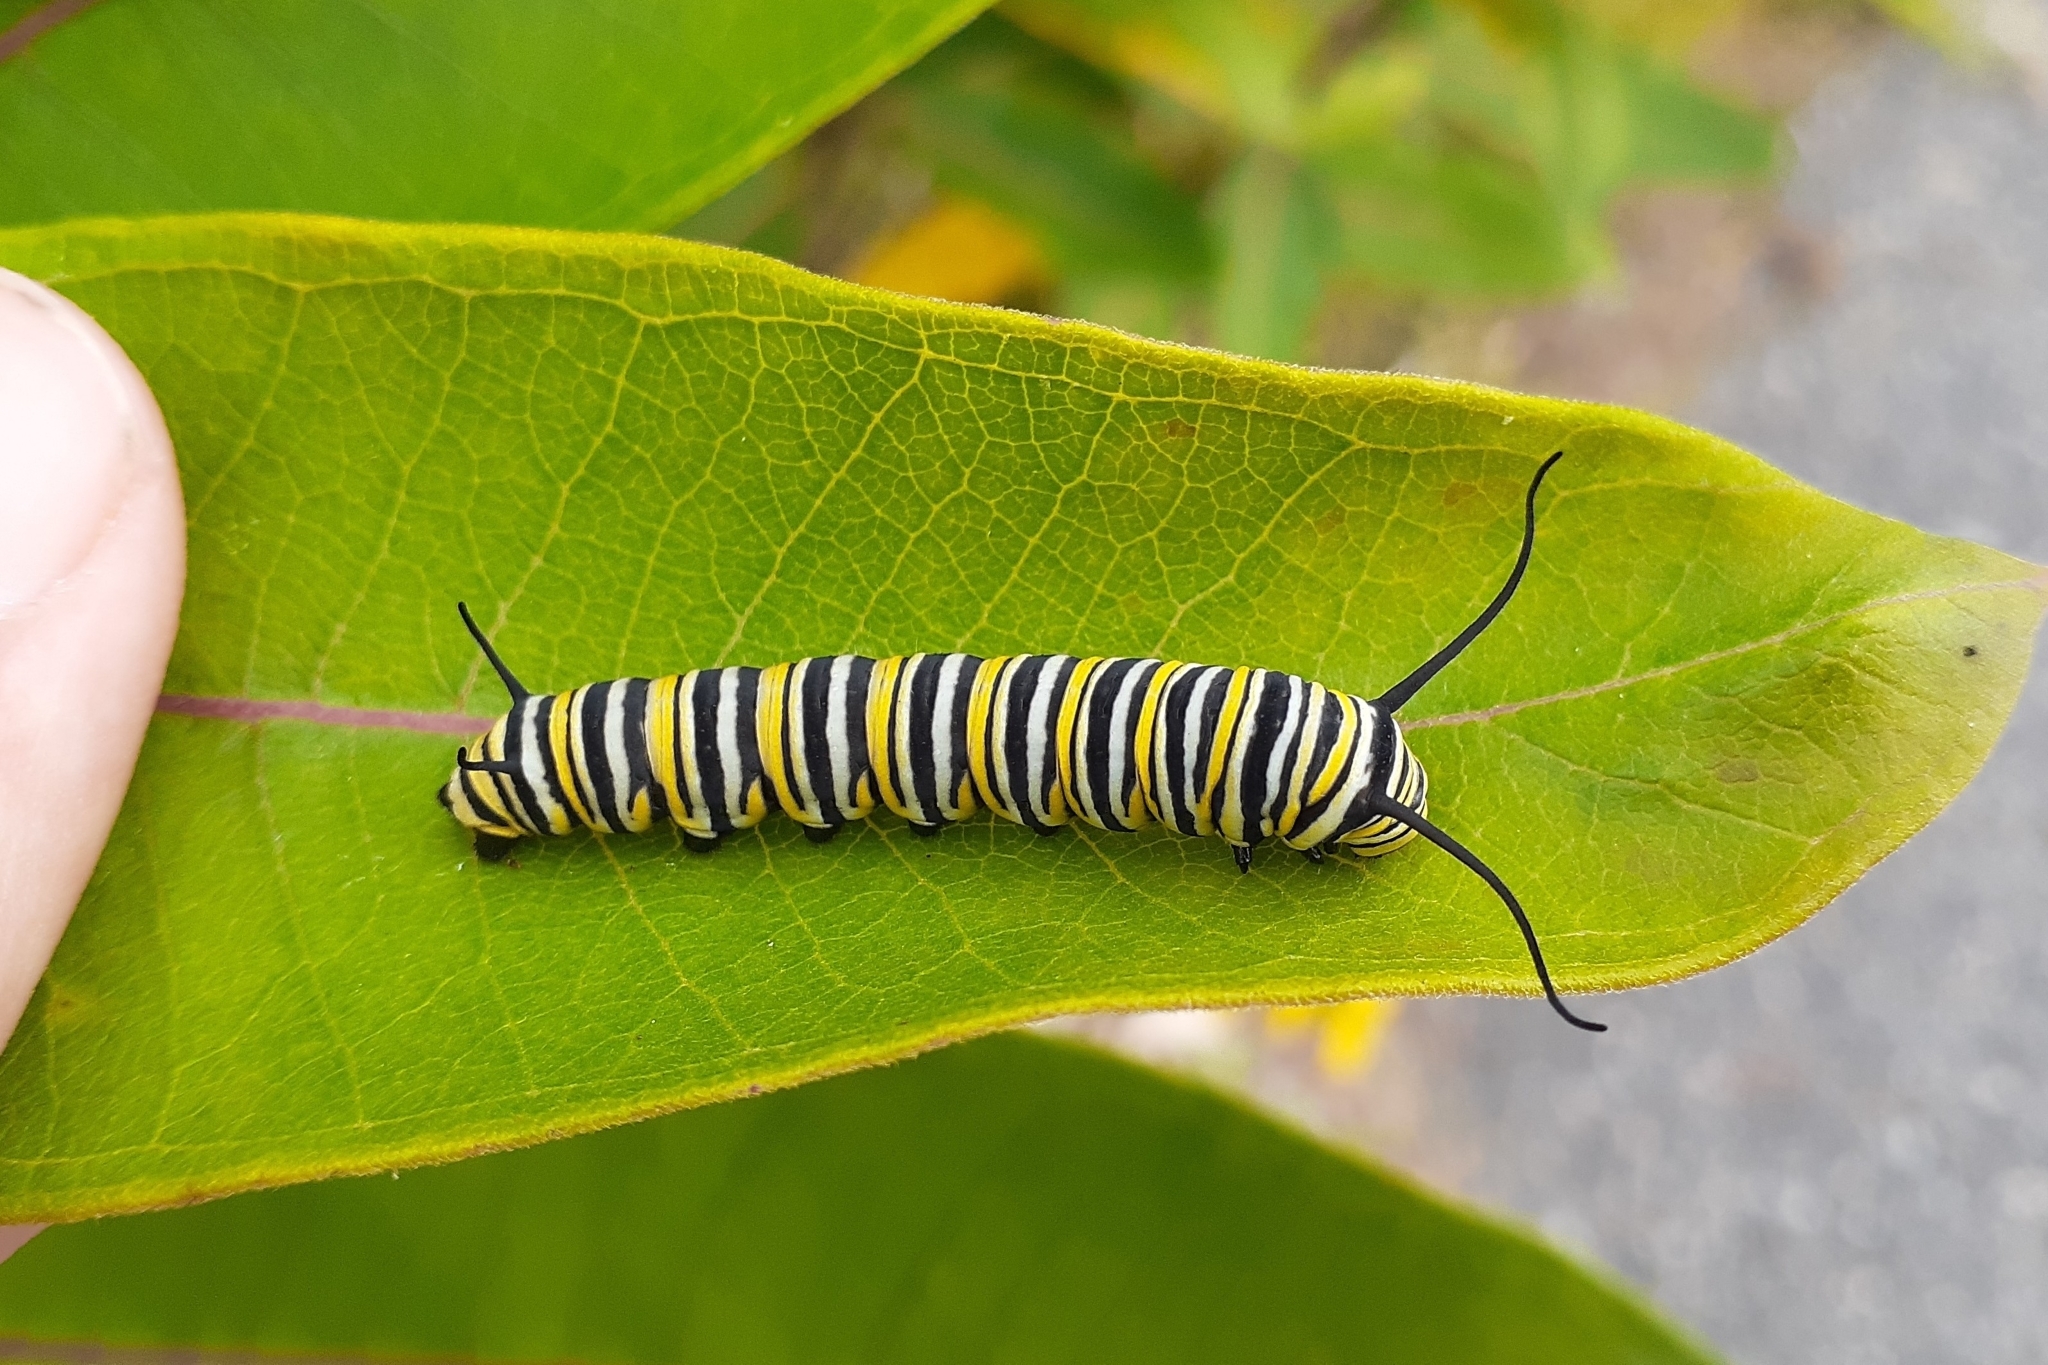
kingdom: Animalia
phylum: Arthropoda
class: Insecta
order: Lepidoptera
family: Nymphalidae
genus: Danaus
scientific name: Danaus plexippus
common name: Monarch
